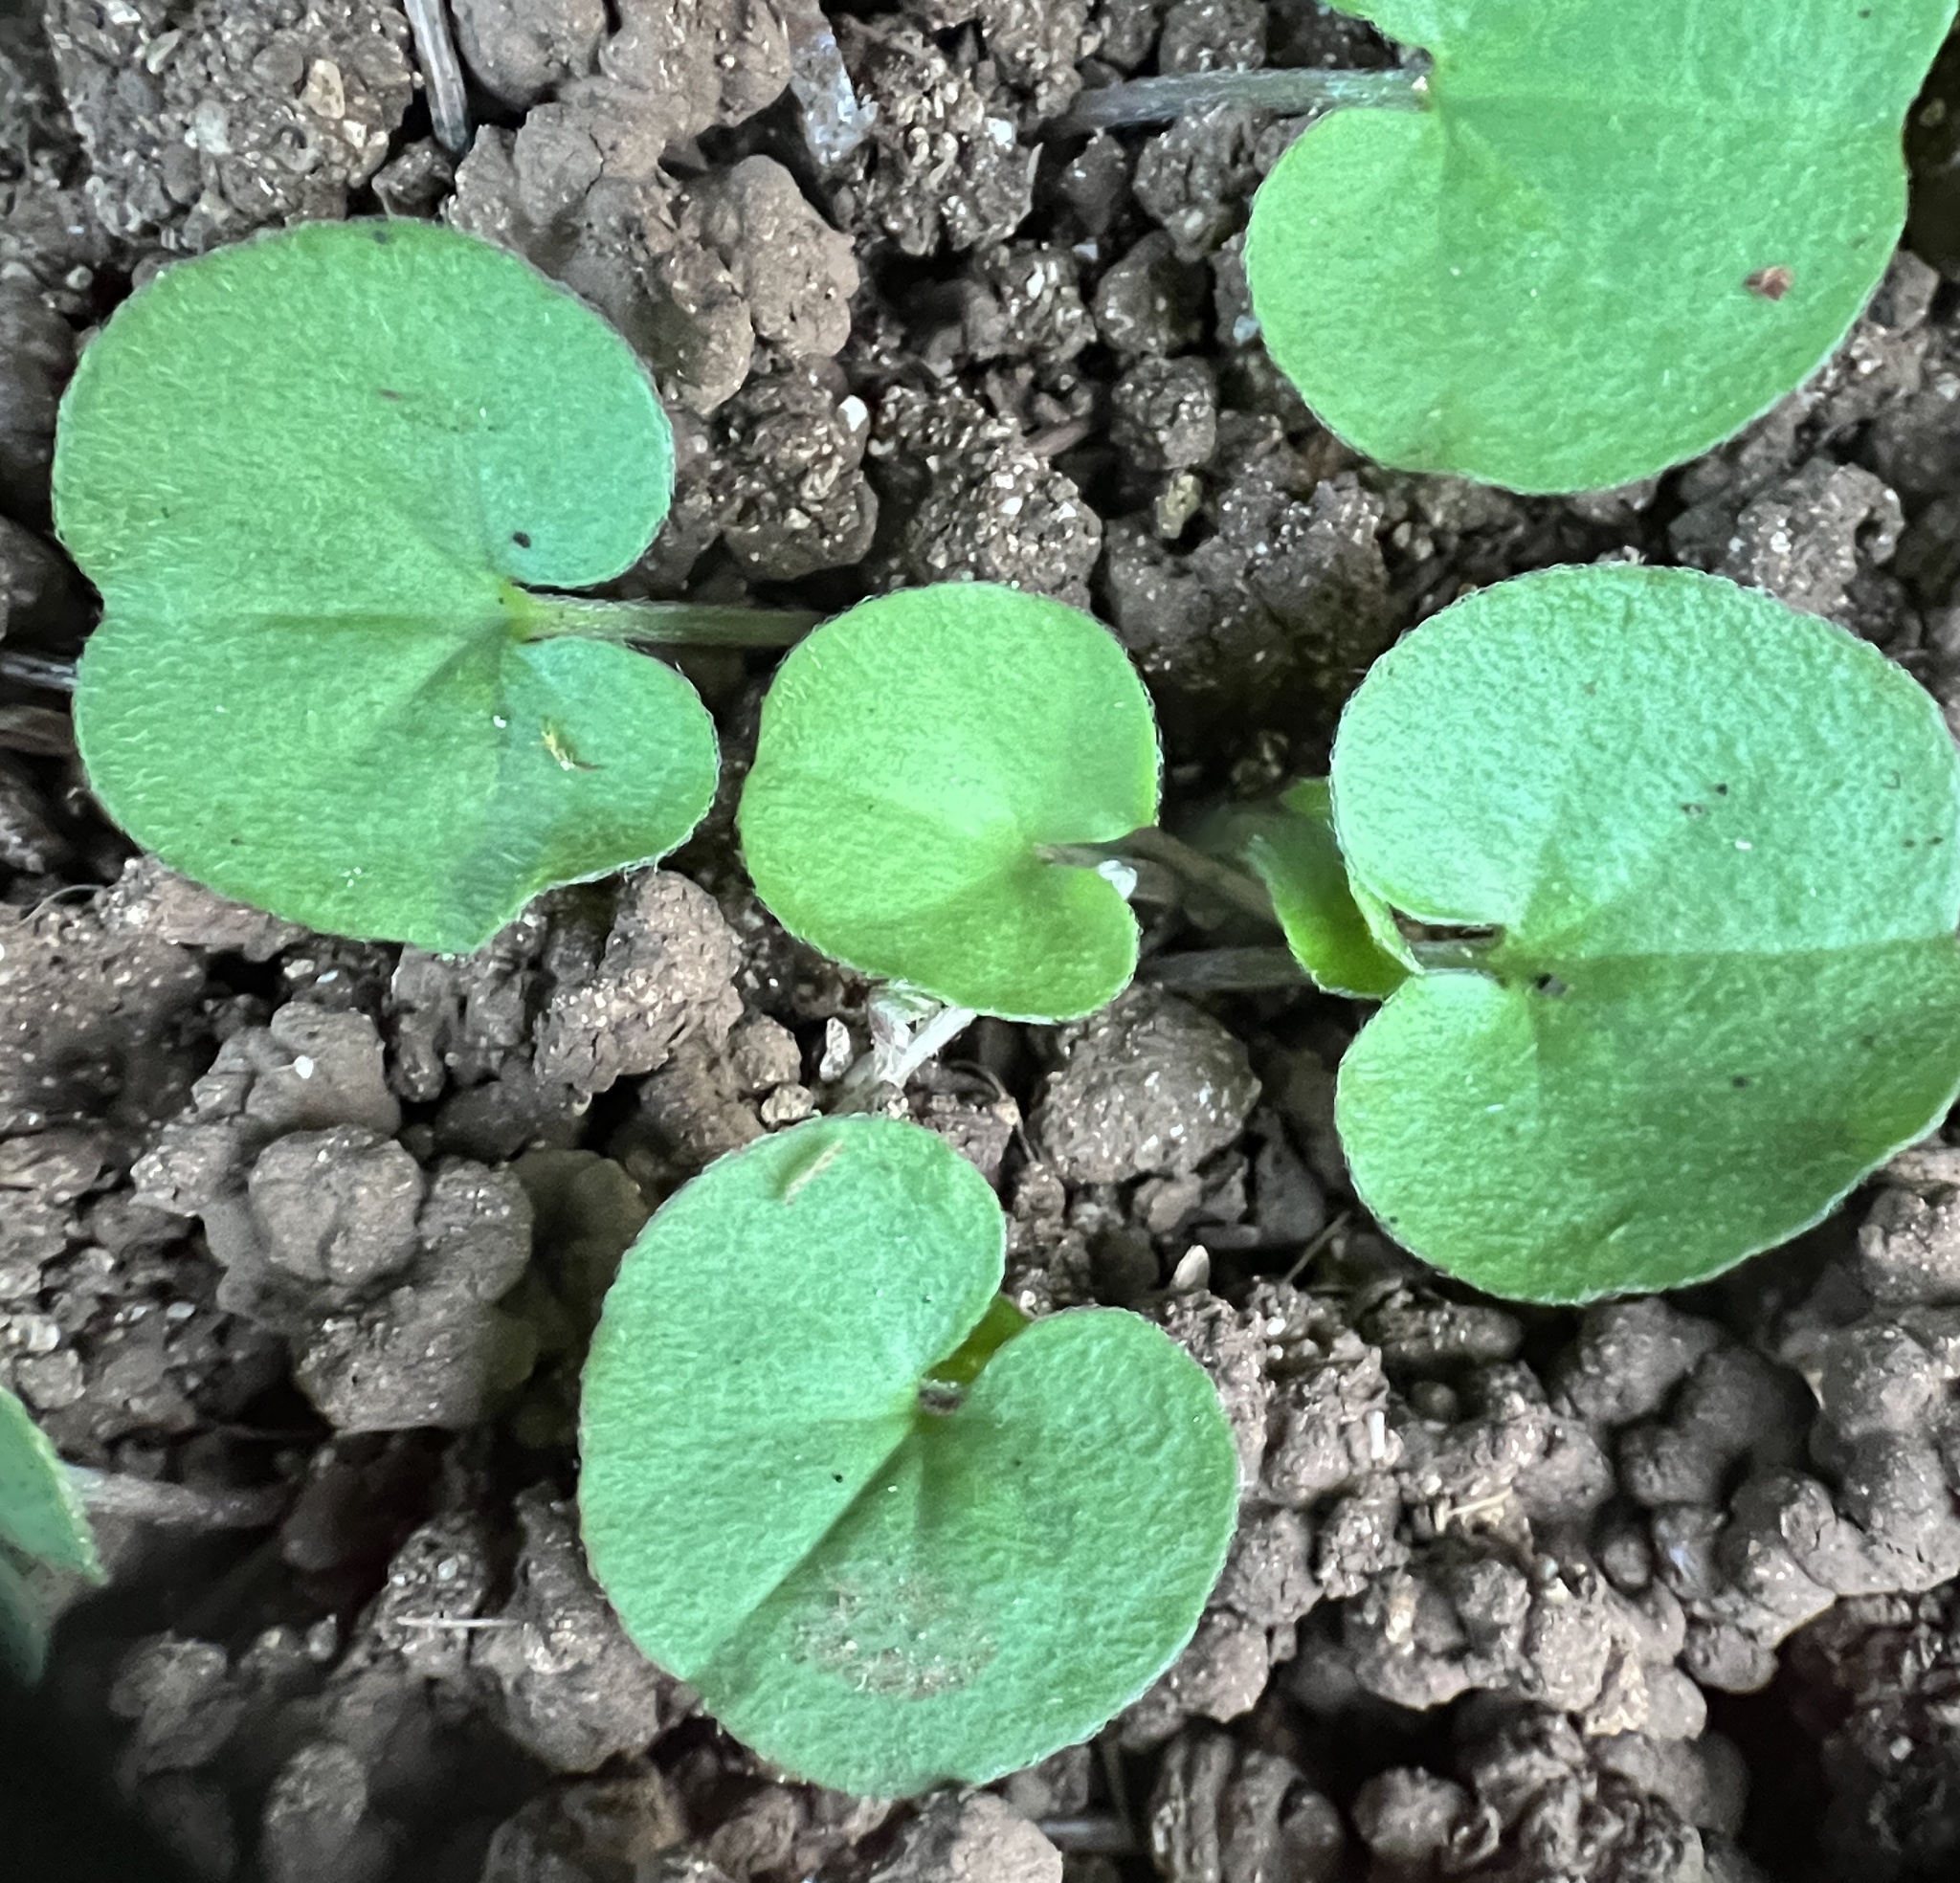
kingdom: Plantae
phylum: Tracheophyta
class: Magnoliopsida
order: Solanales
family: Convolvulaceae
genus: Dichondra
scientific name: Dichondra carolinensis
